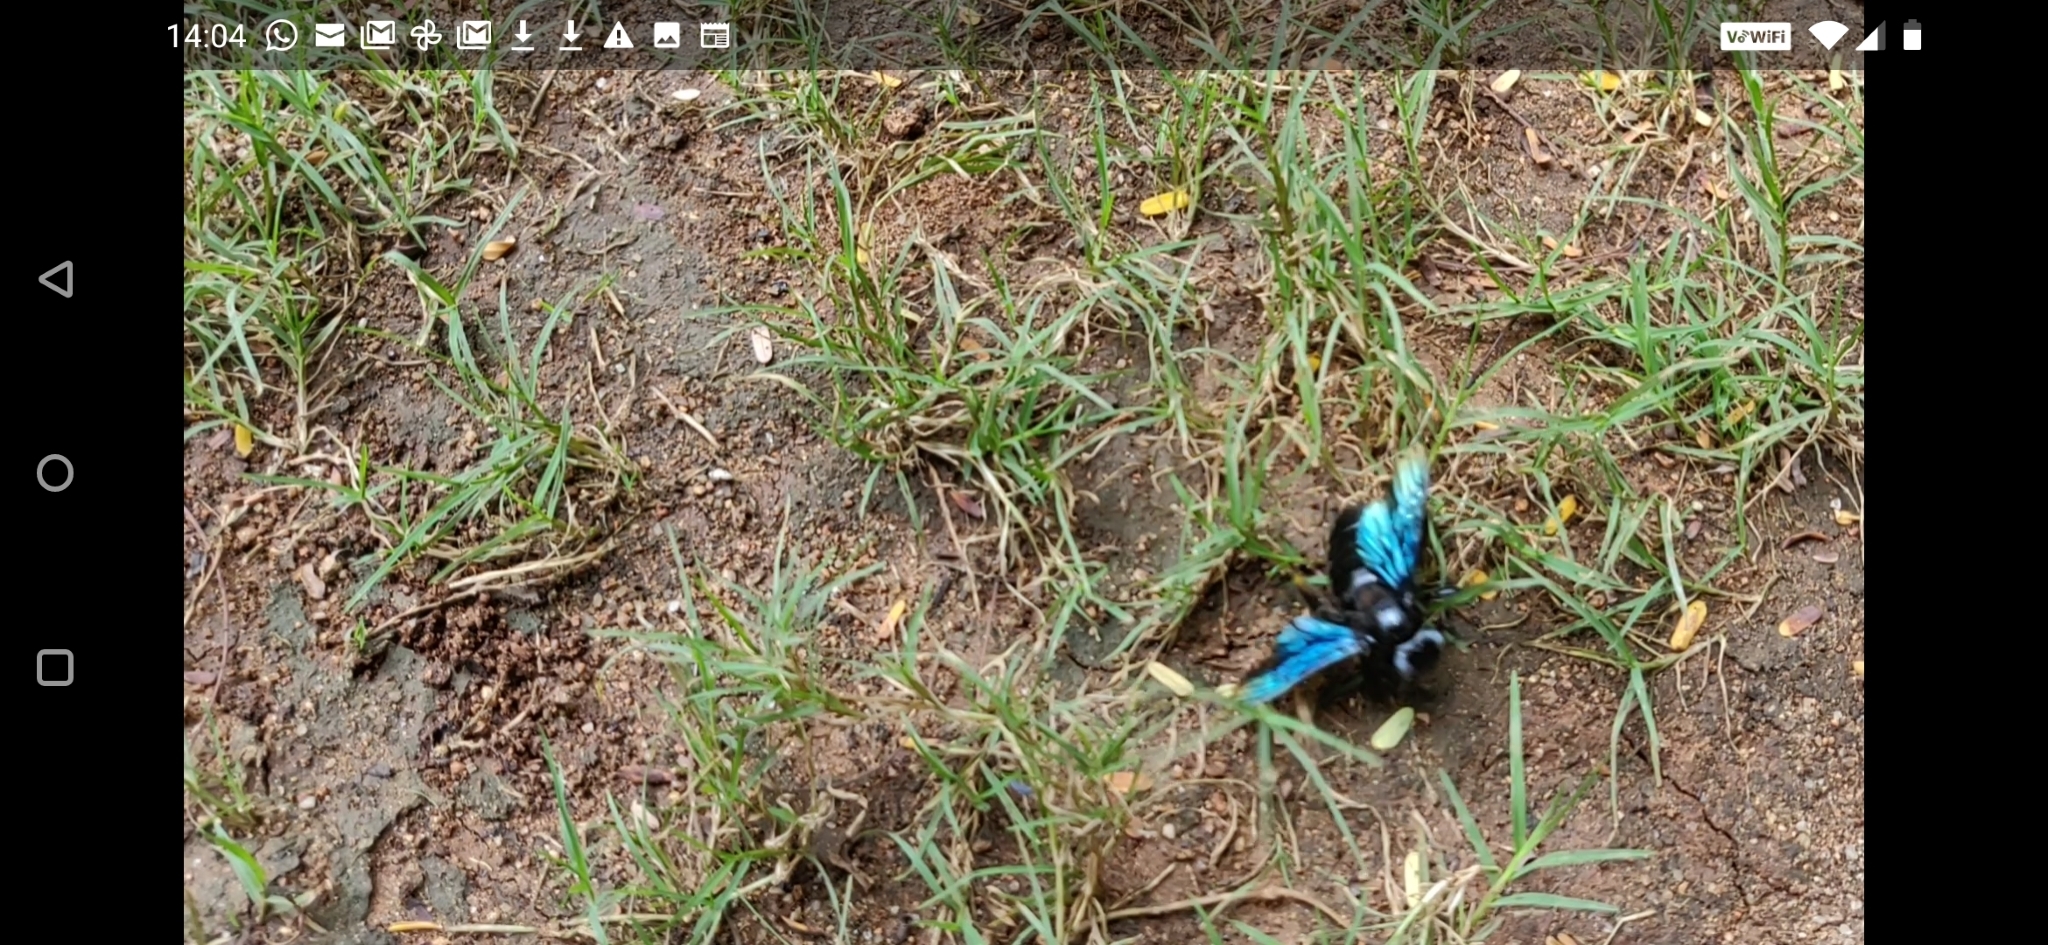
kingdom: Animalia
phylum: Arthropoda
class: Insecta
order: Hymenoptera
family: Apidae
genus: Xylocopa
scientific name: Xylocopa auripennis
